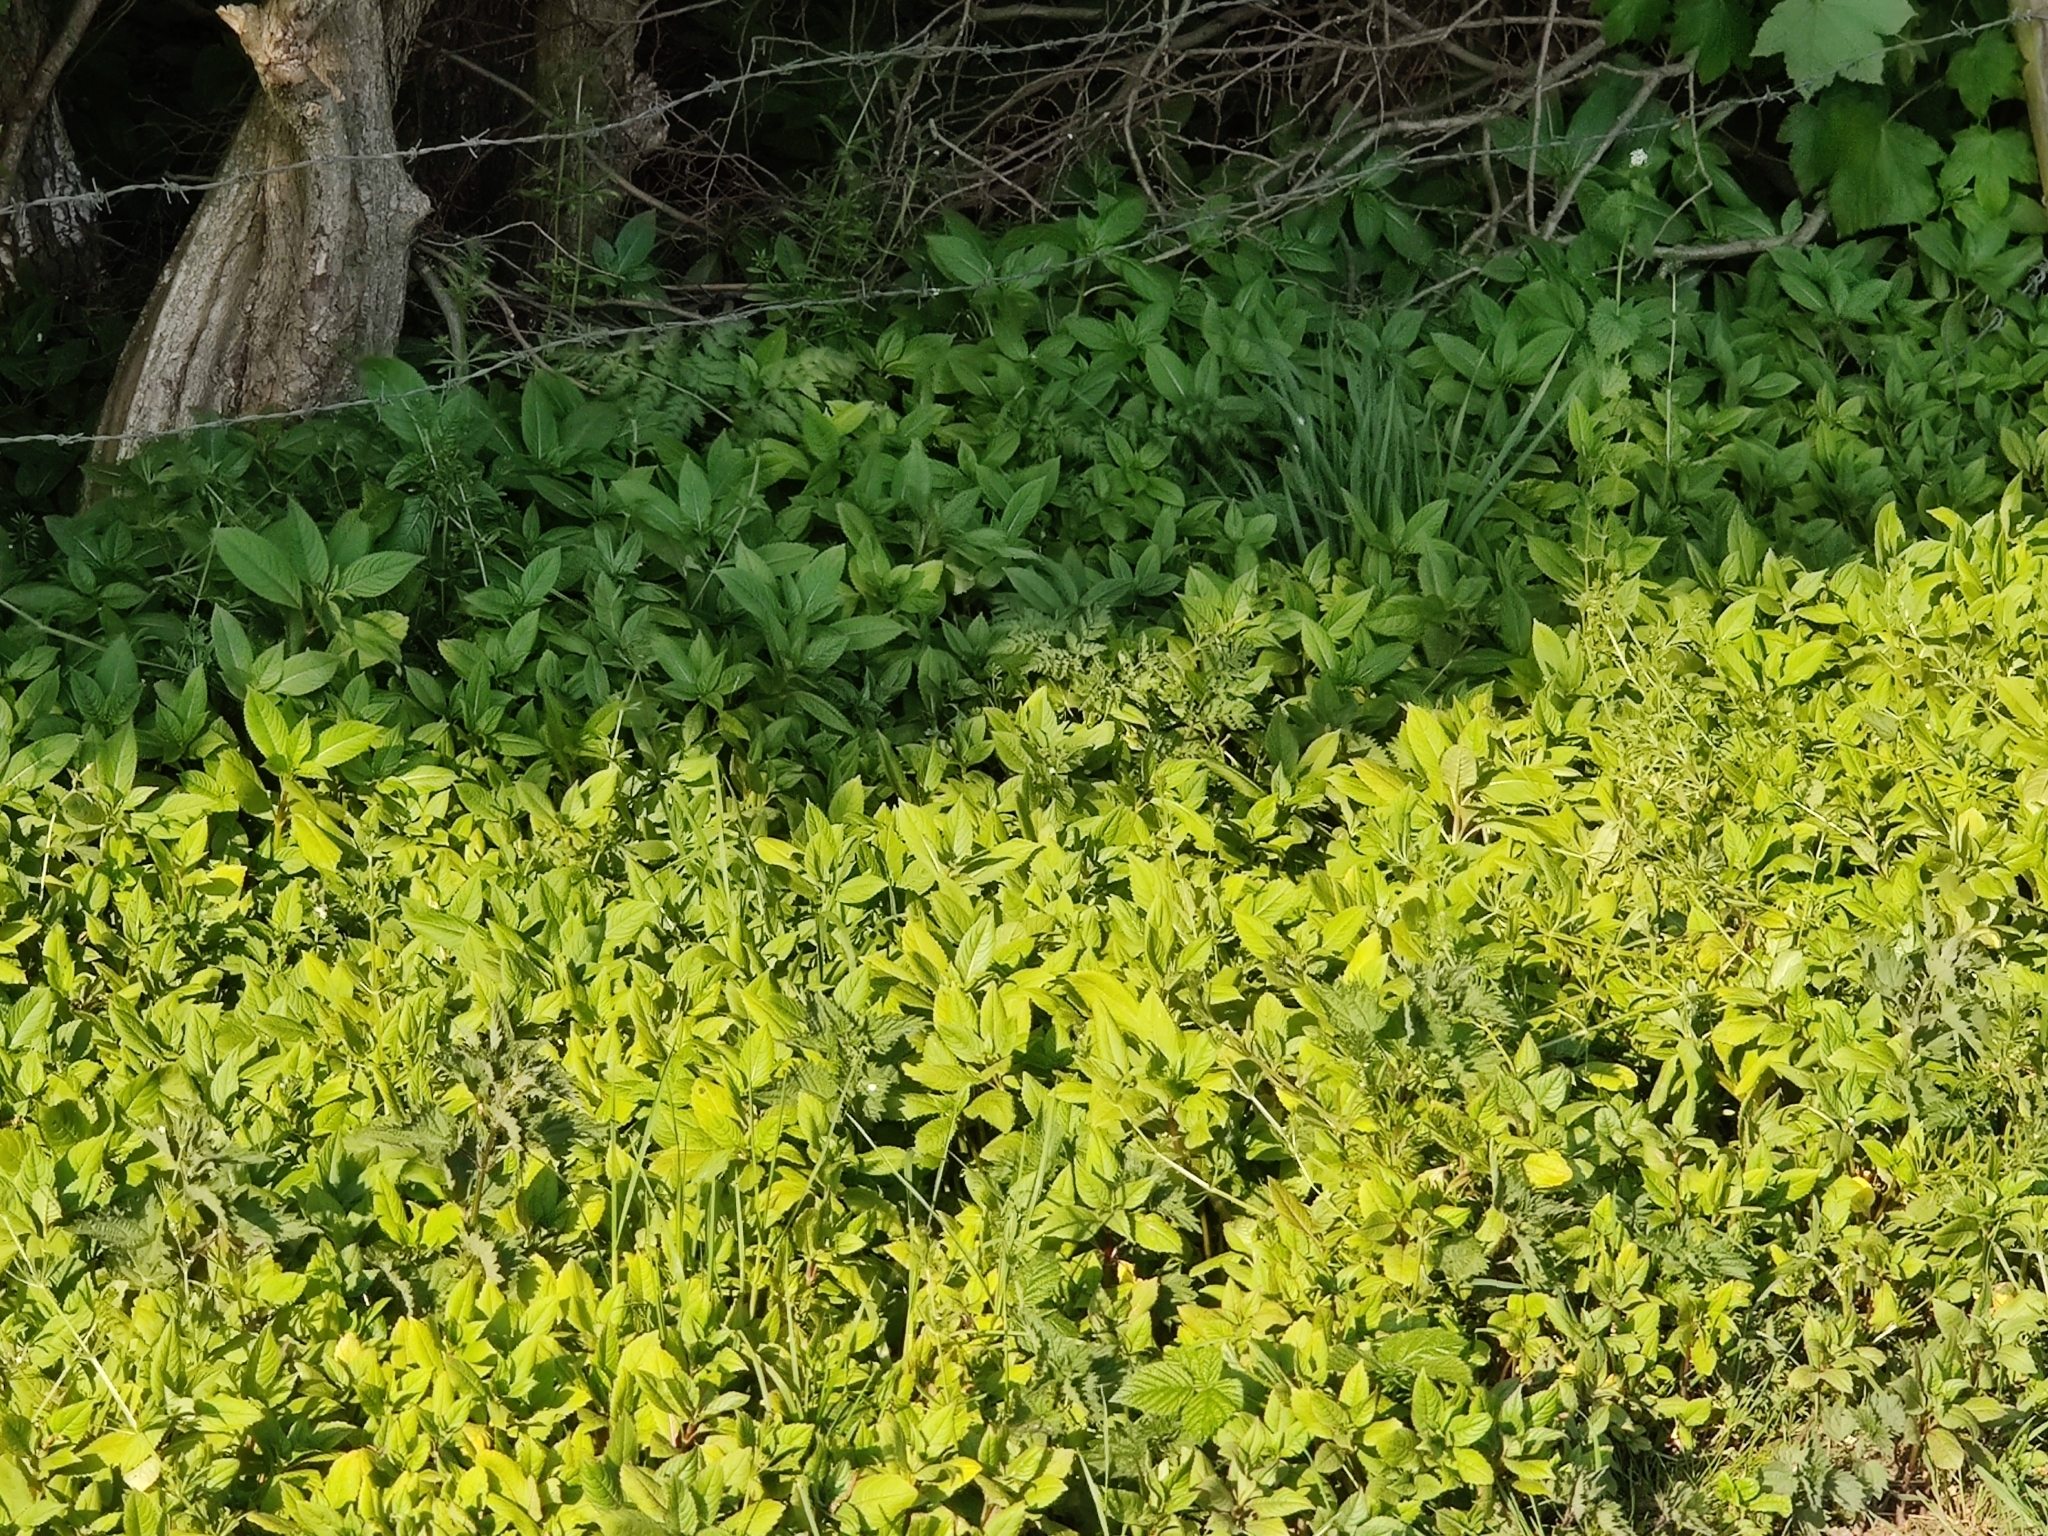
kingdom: Plantae
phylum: Tracheophyta
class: Magnoliopsida
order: Ericales
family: Balsaminaceae
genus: Impatiens
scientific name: Impatiens glandulifera
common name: Himalayan balsam
